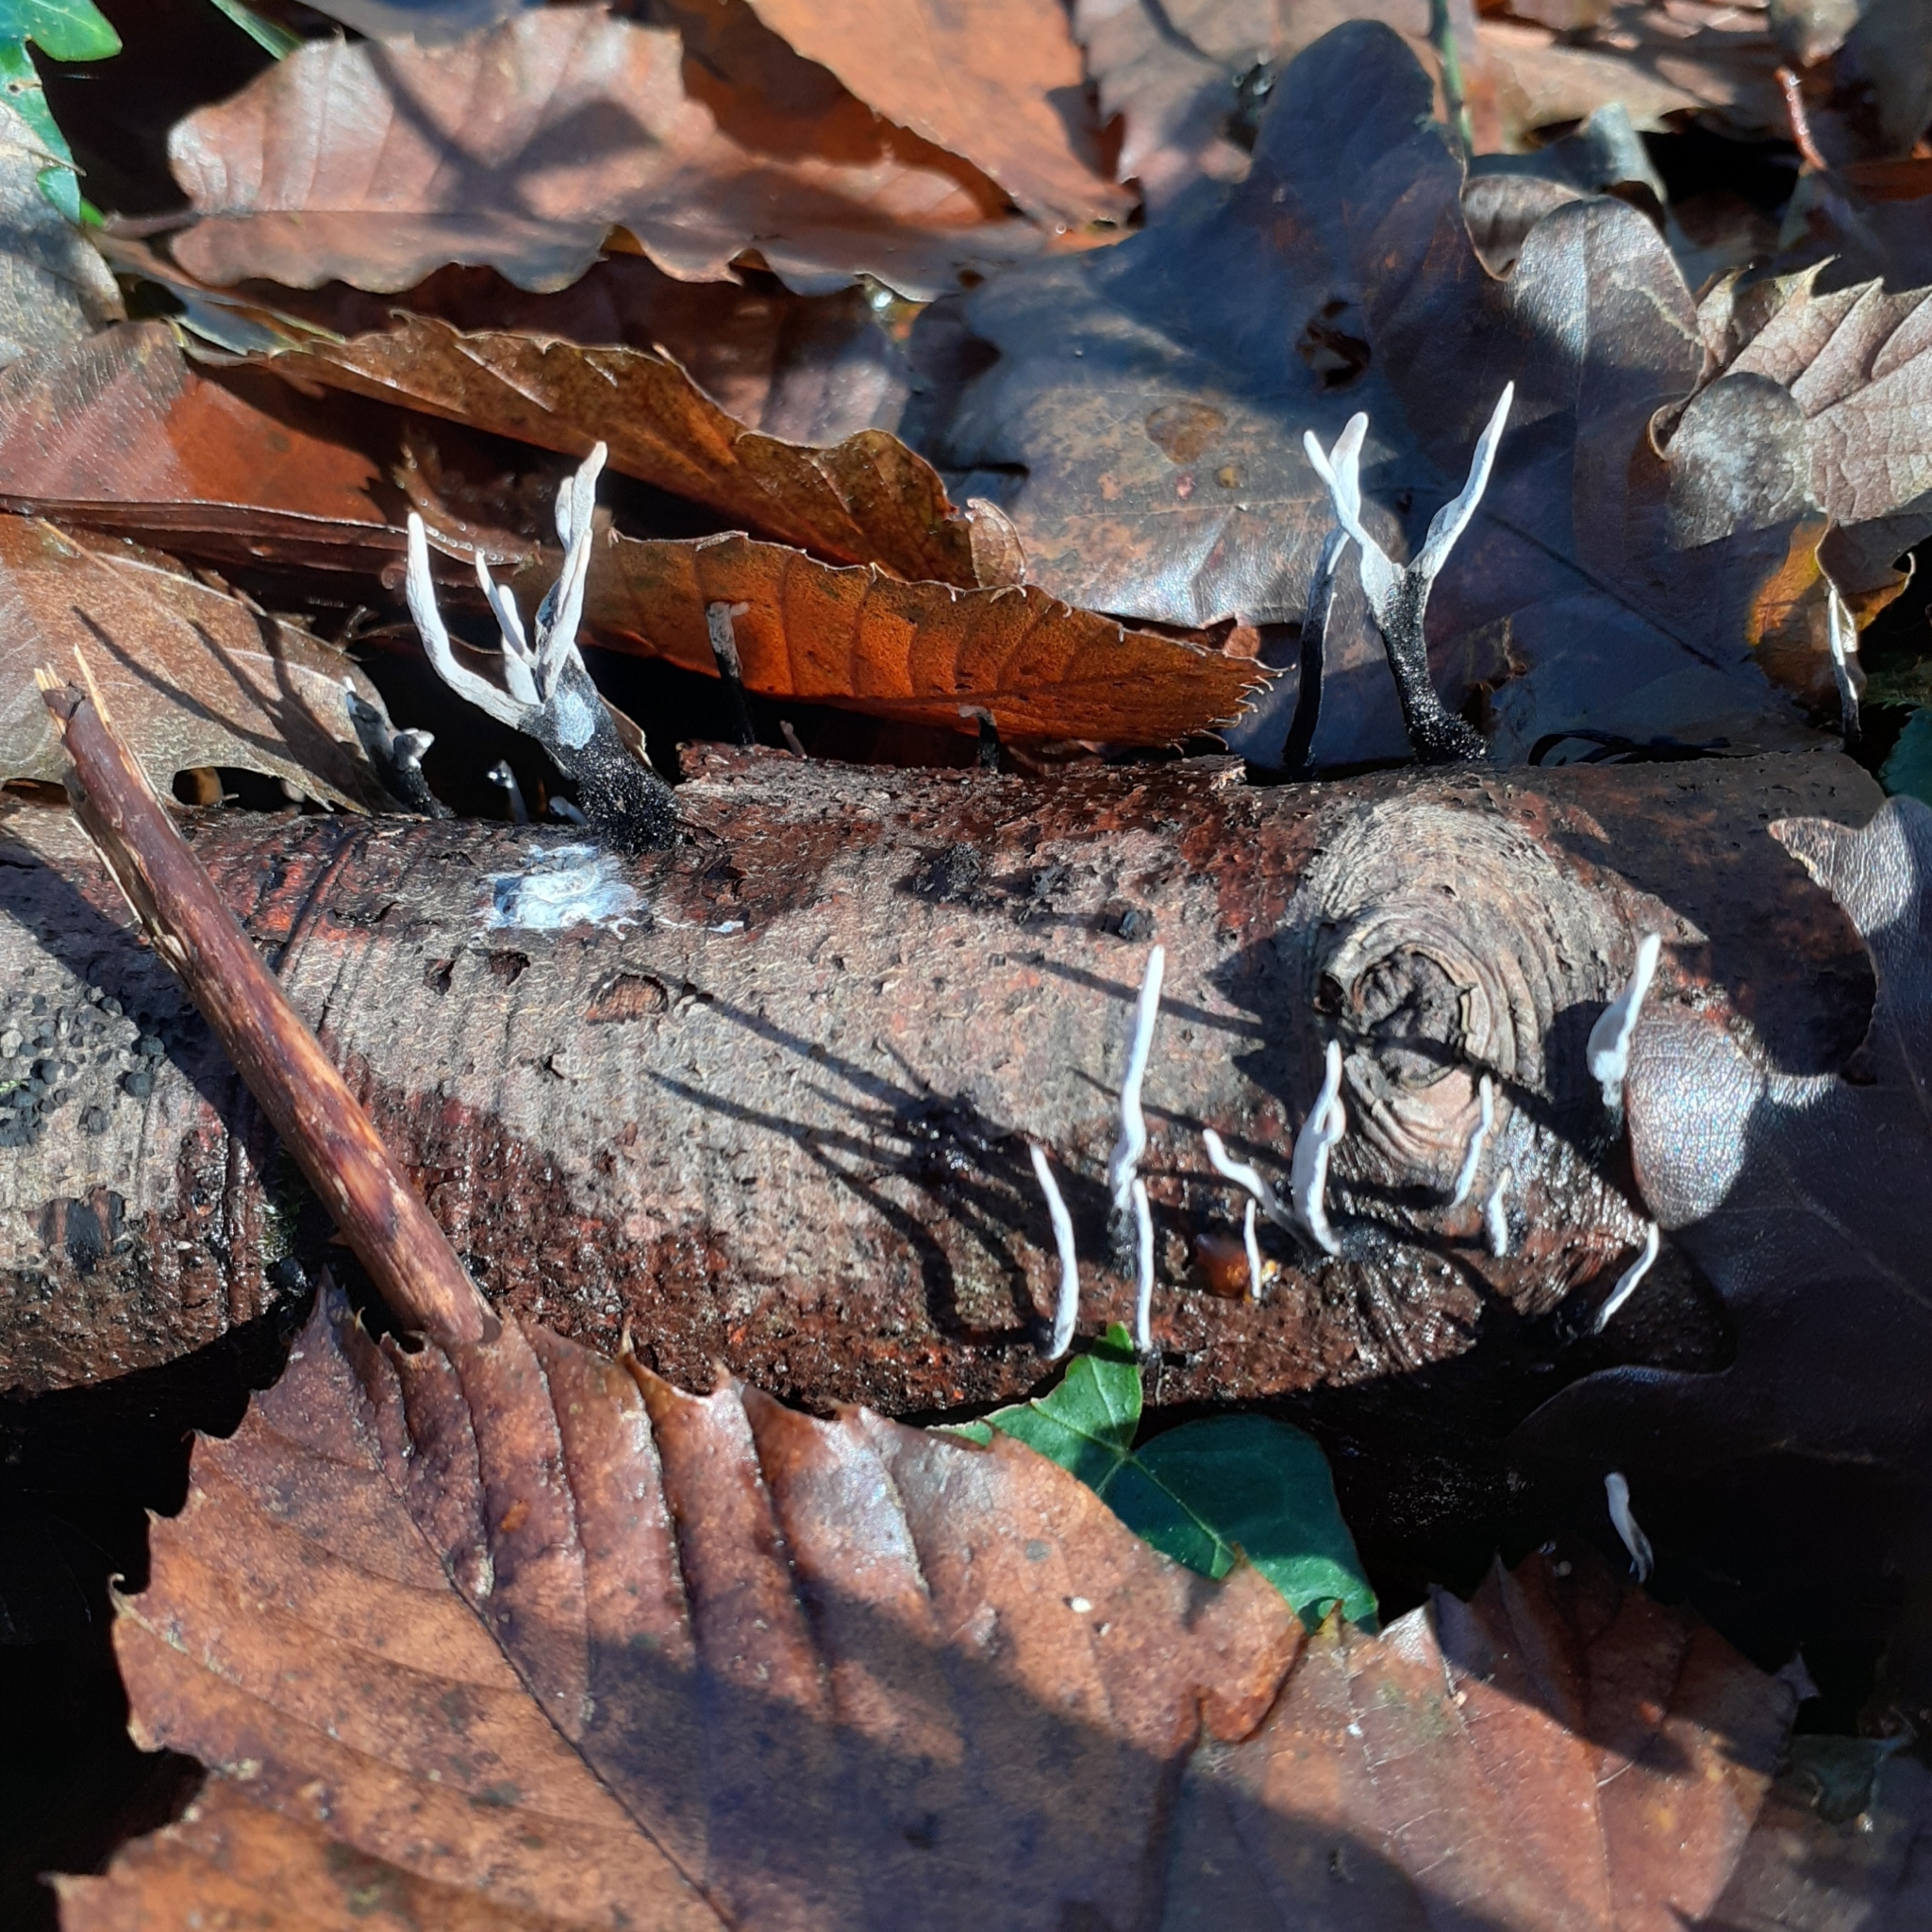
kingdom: Fungi
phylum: Ascomycota
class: Sordariomycetes
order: Xylariales
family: Xylariaceae
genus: Xylaria
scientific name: Xylaria hypoxylon
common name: Candle-snuff fungus
